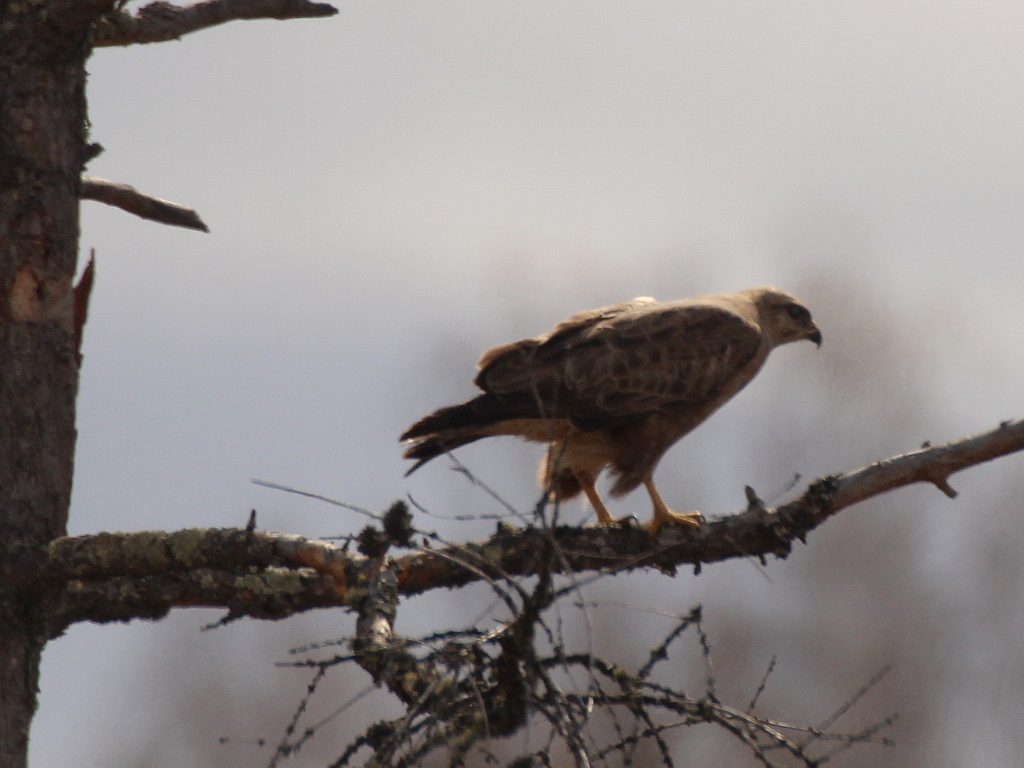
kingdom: Animalia
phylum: Chordata
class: Aves
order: Accipitriformes
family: Accipitridae
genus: Buteo
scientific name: Buteo buteo
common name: Common buzzard
